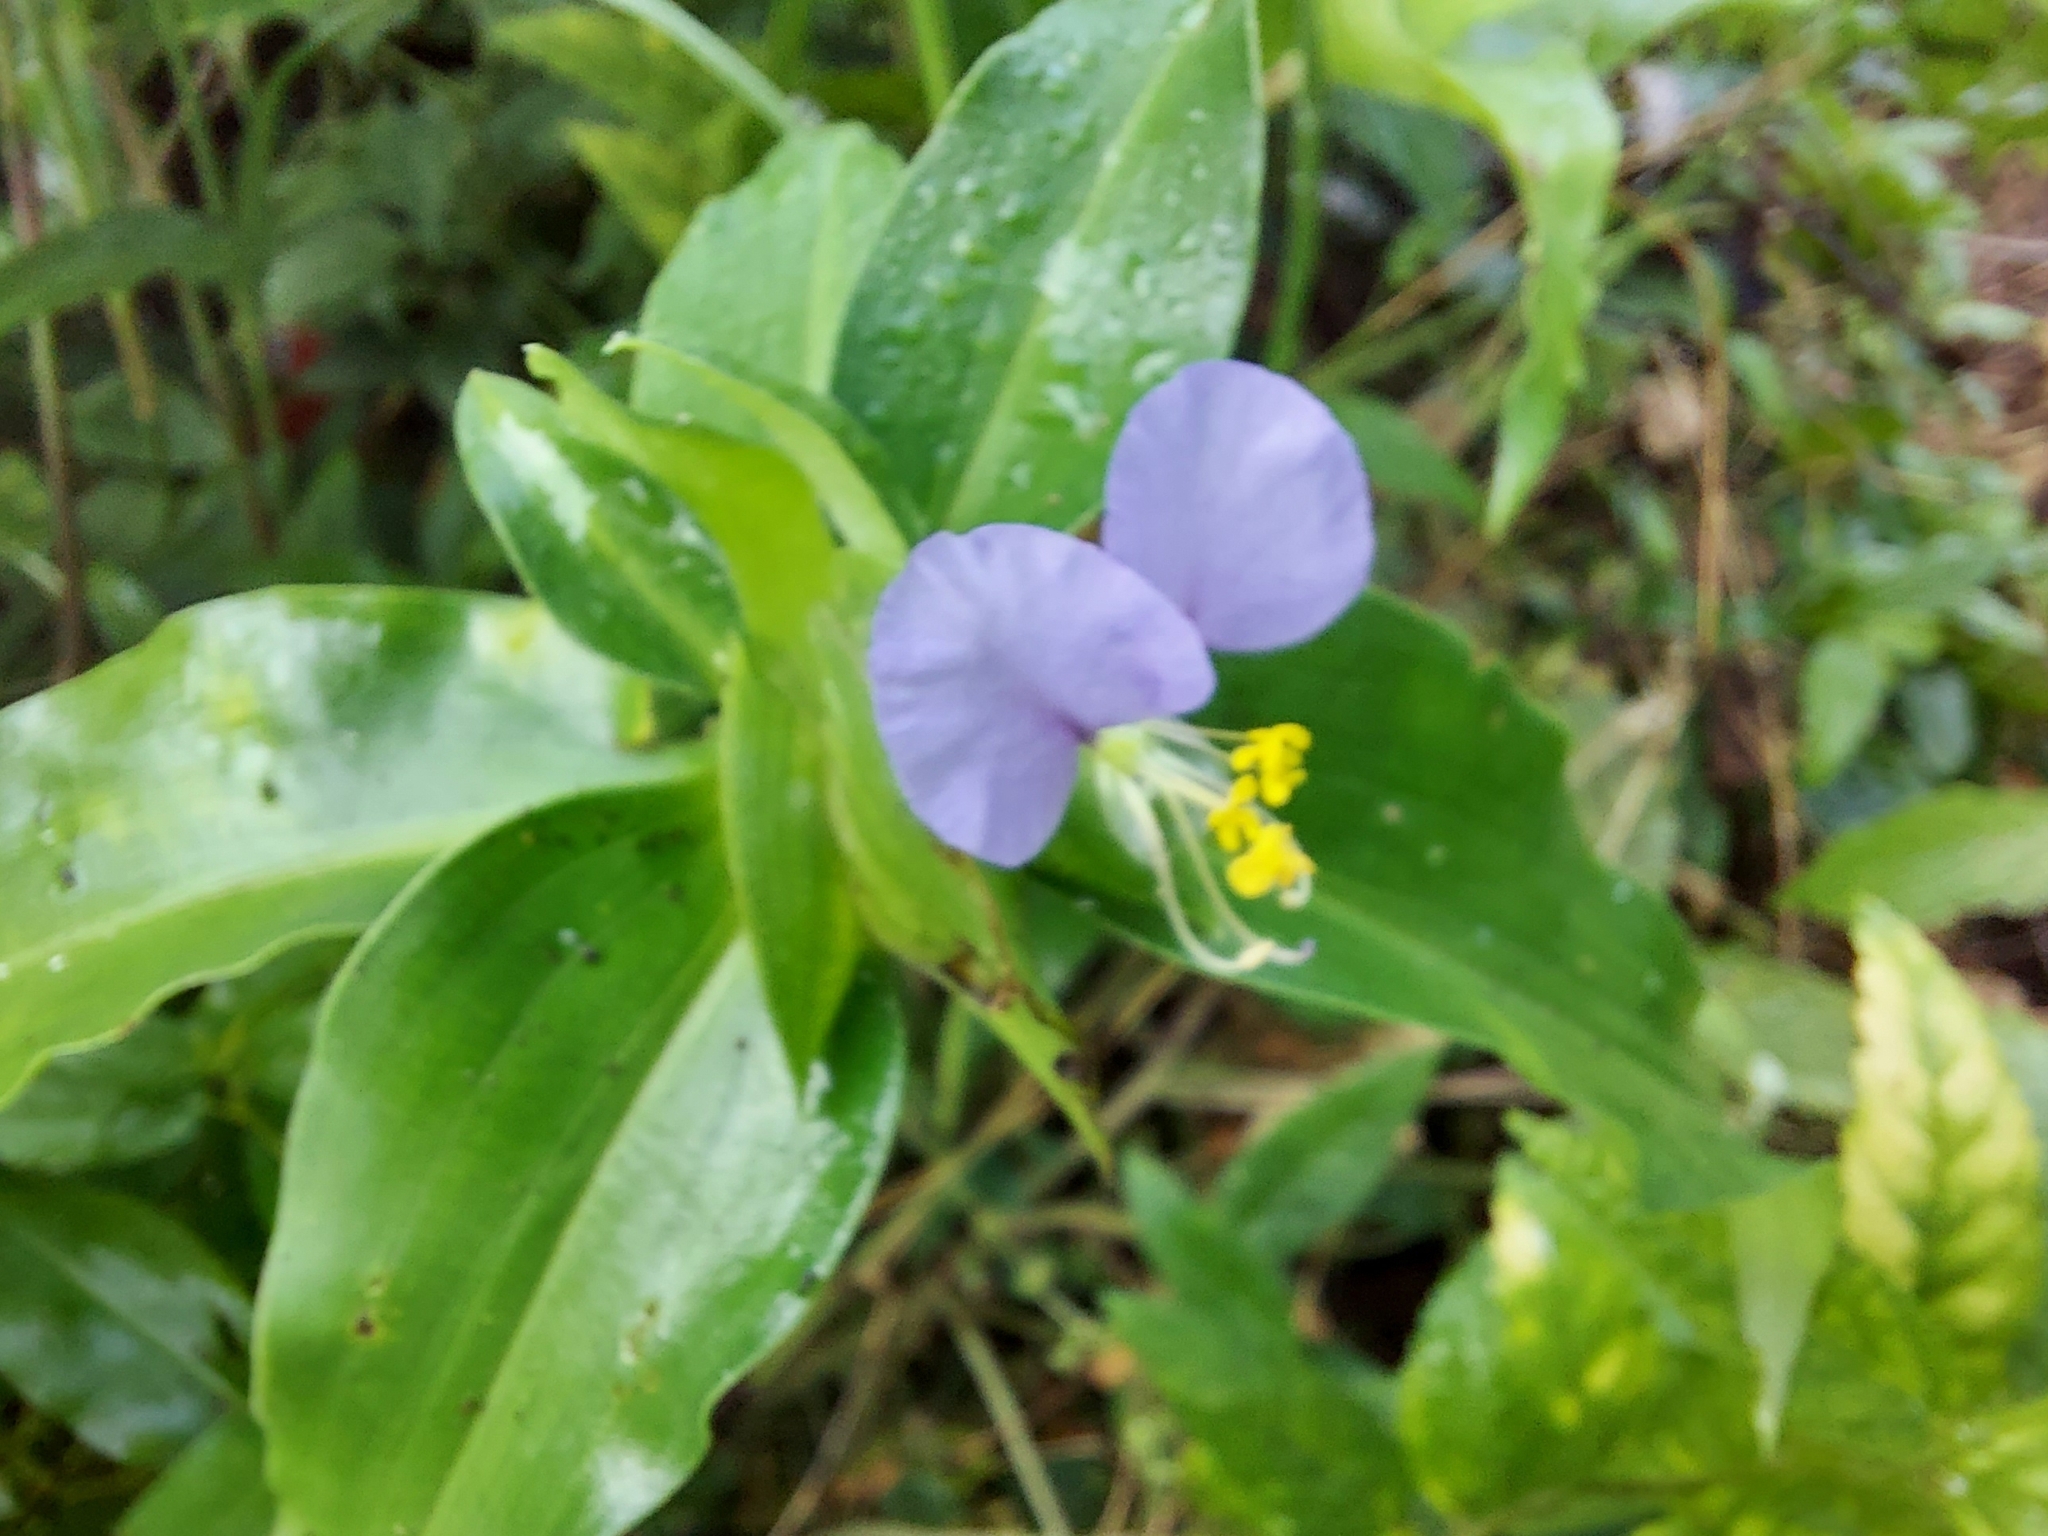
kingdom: Plantae
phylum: Tracheophyta
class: Liliopsida
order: Commelinales
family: Commelinaceae
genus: Commelina
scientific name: Commelina undulata
